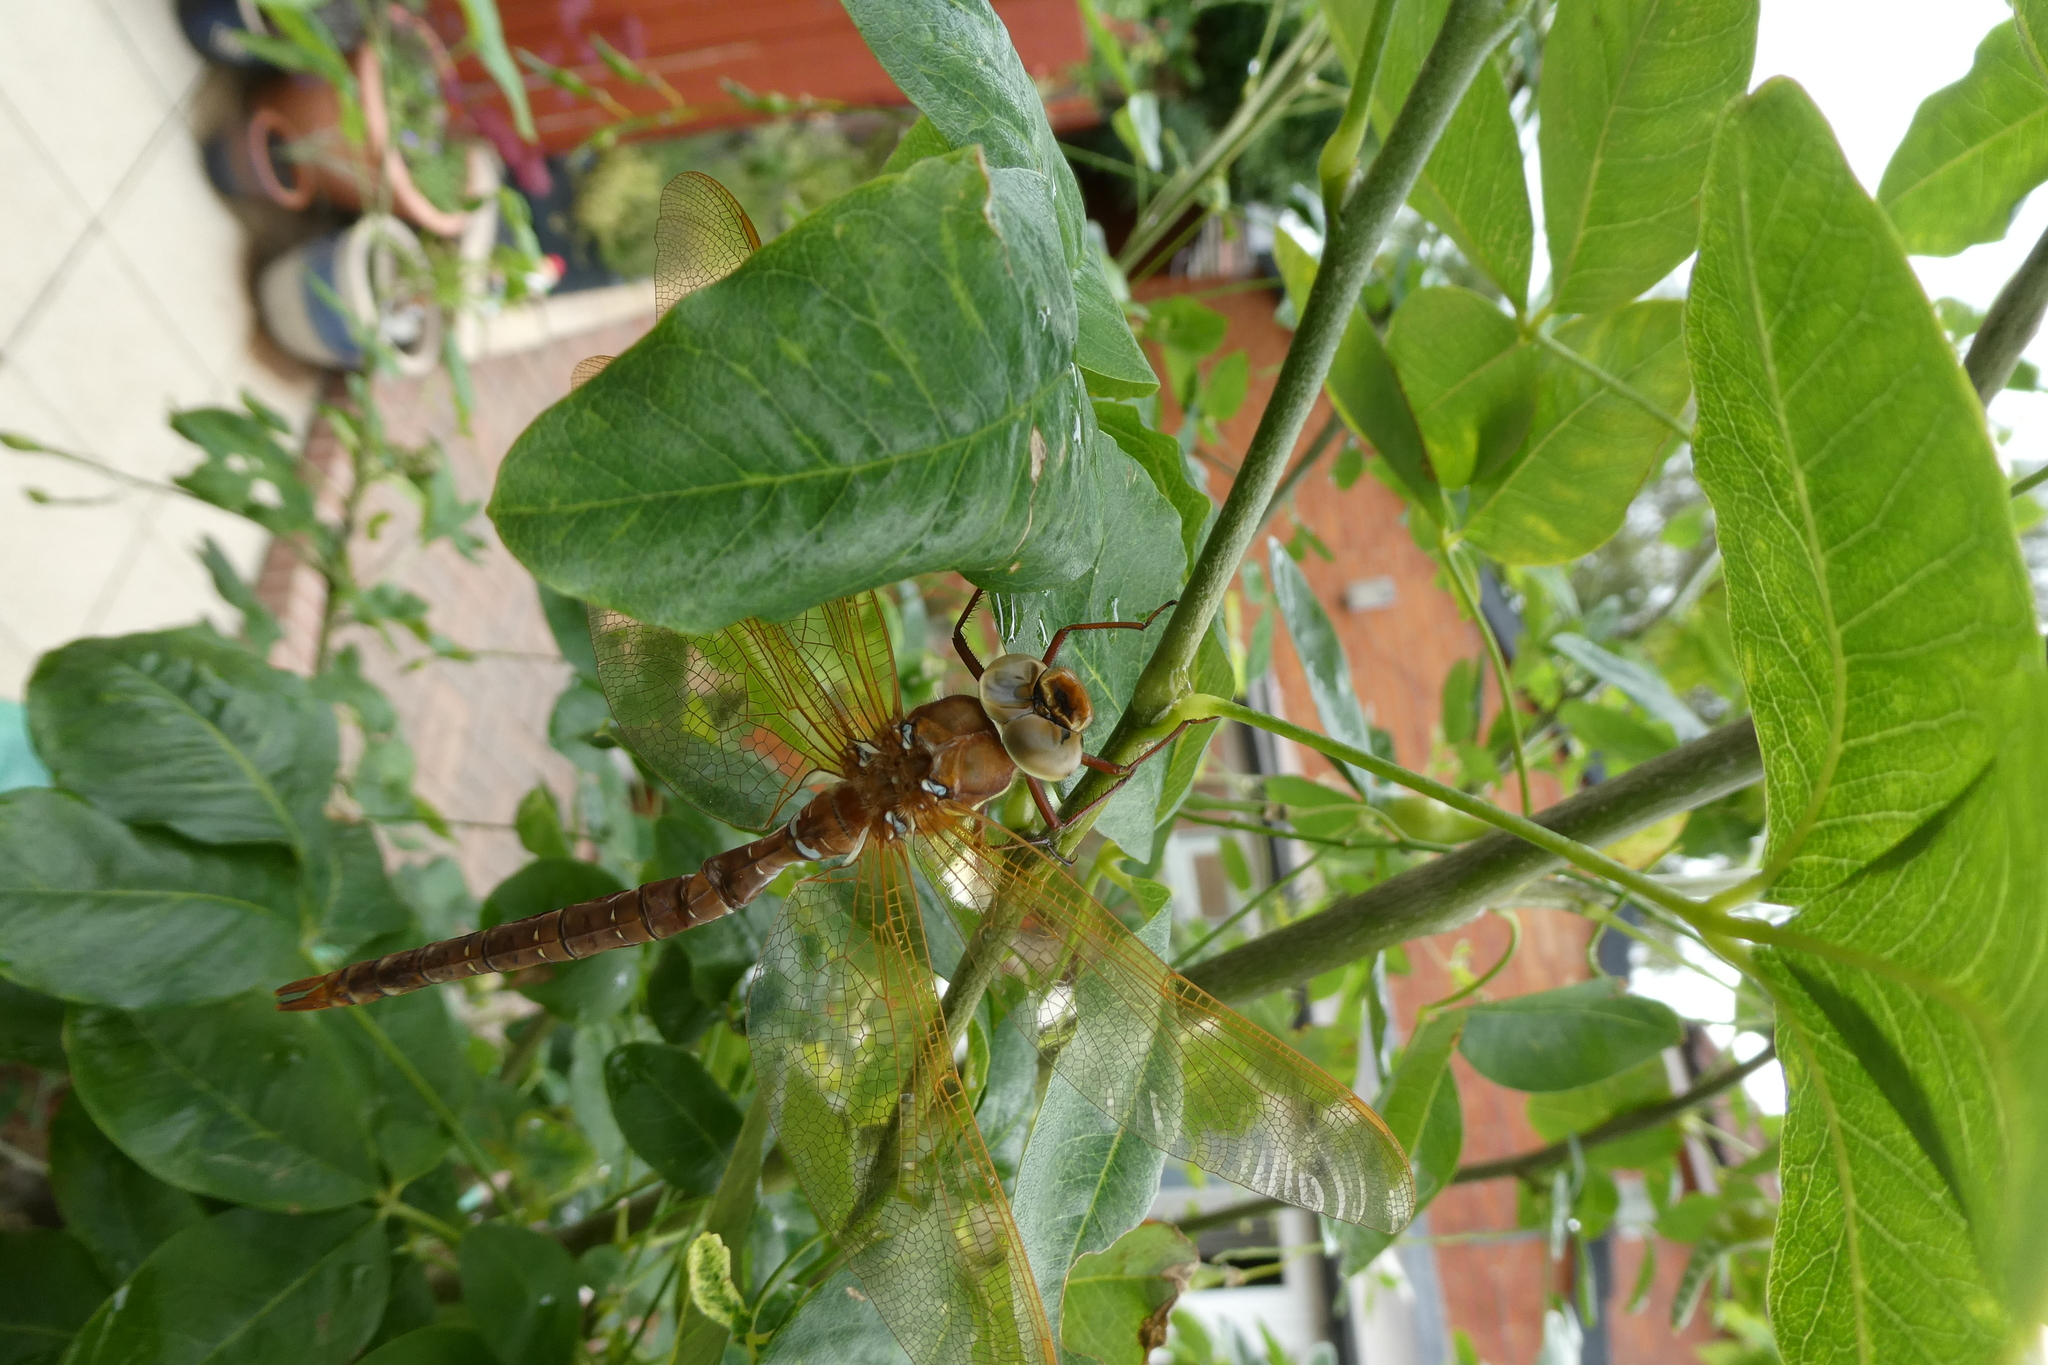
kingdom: Animalia
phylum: Arthropoda
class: Insecta
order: Odonata
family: Aeshnidae
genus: Aeshna
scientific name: Aeshna grandis
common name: Brown hawker
